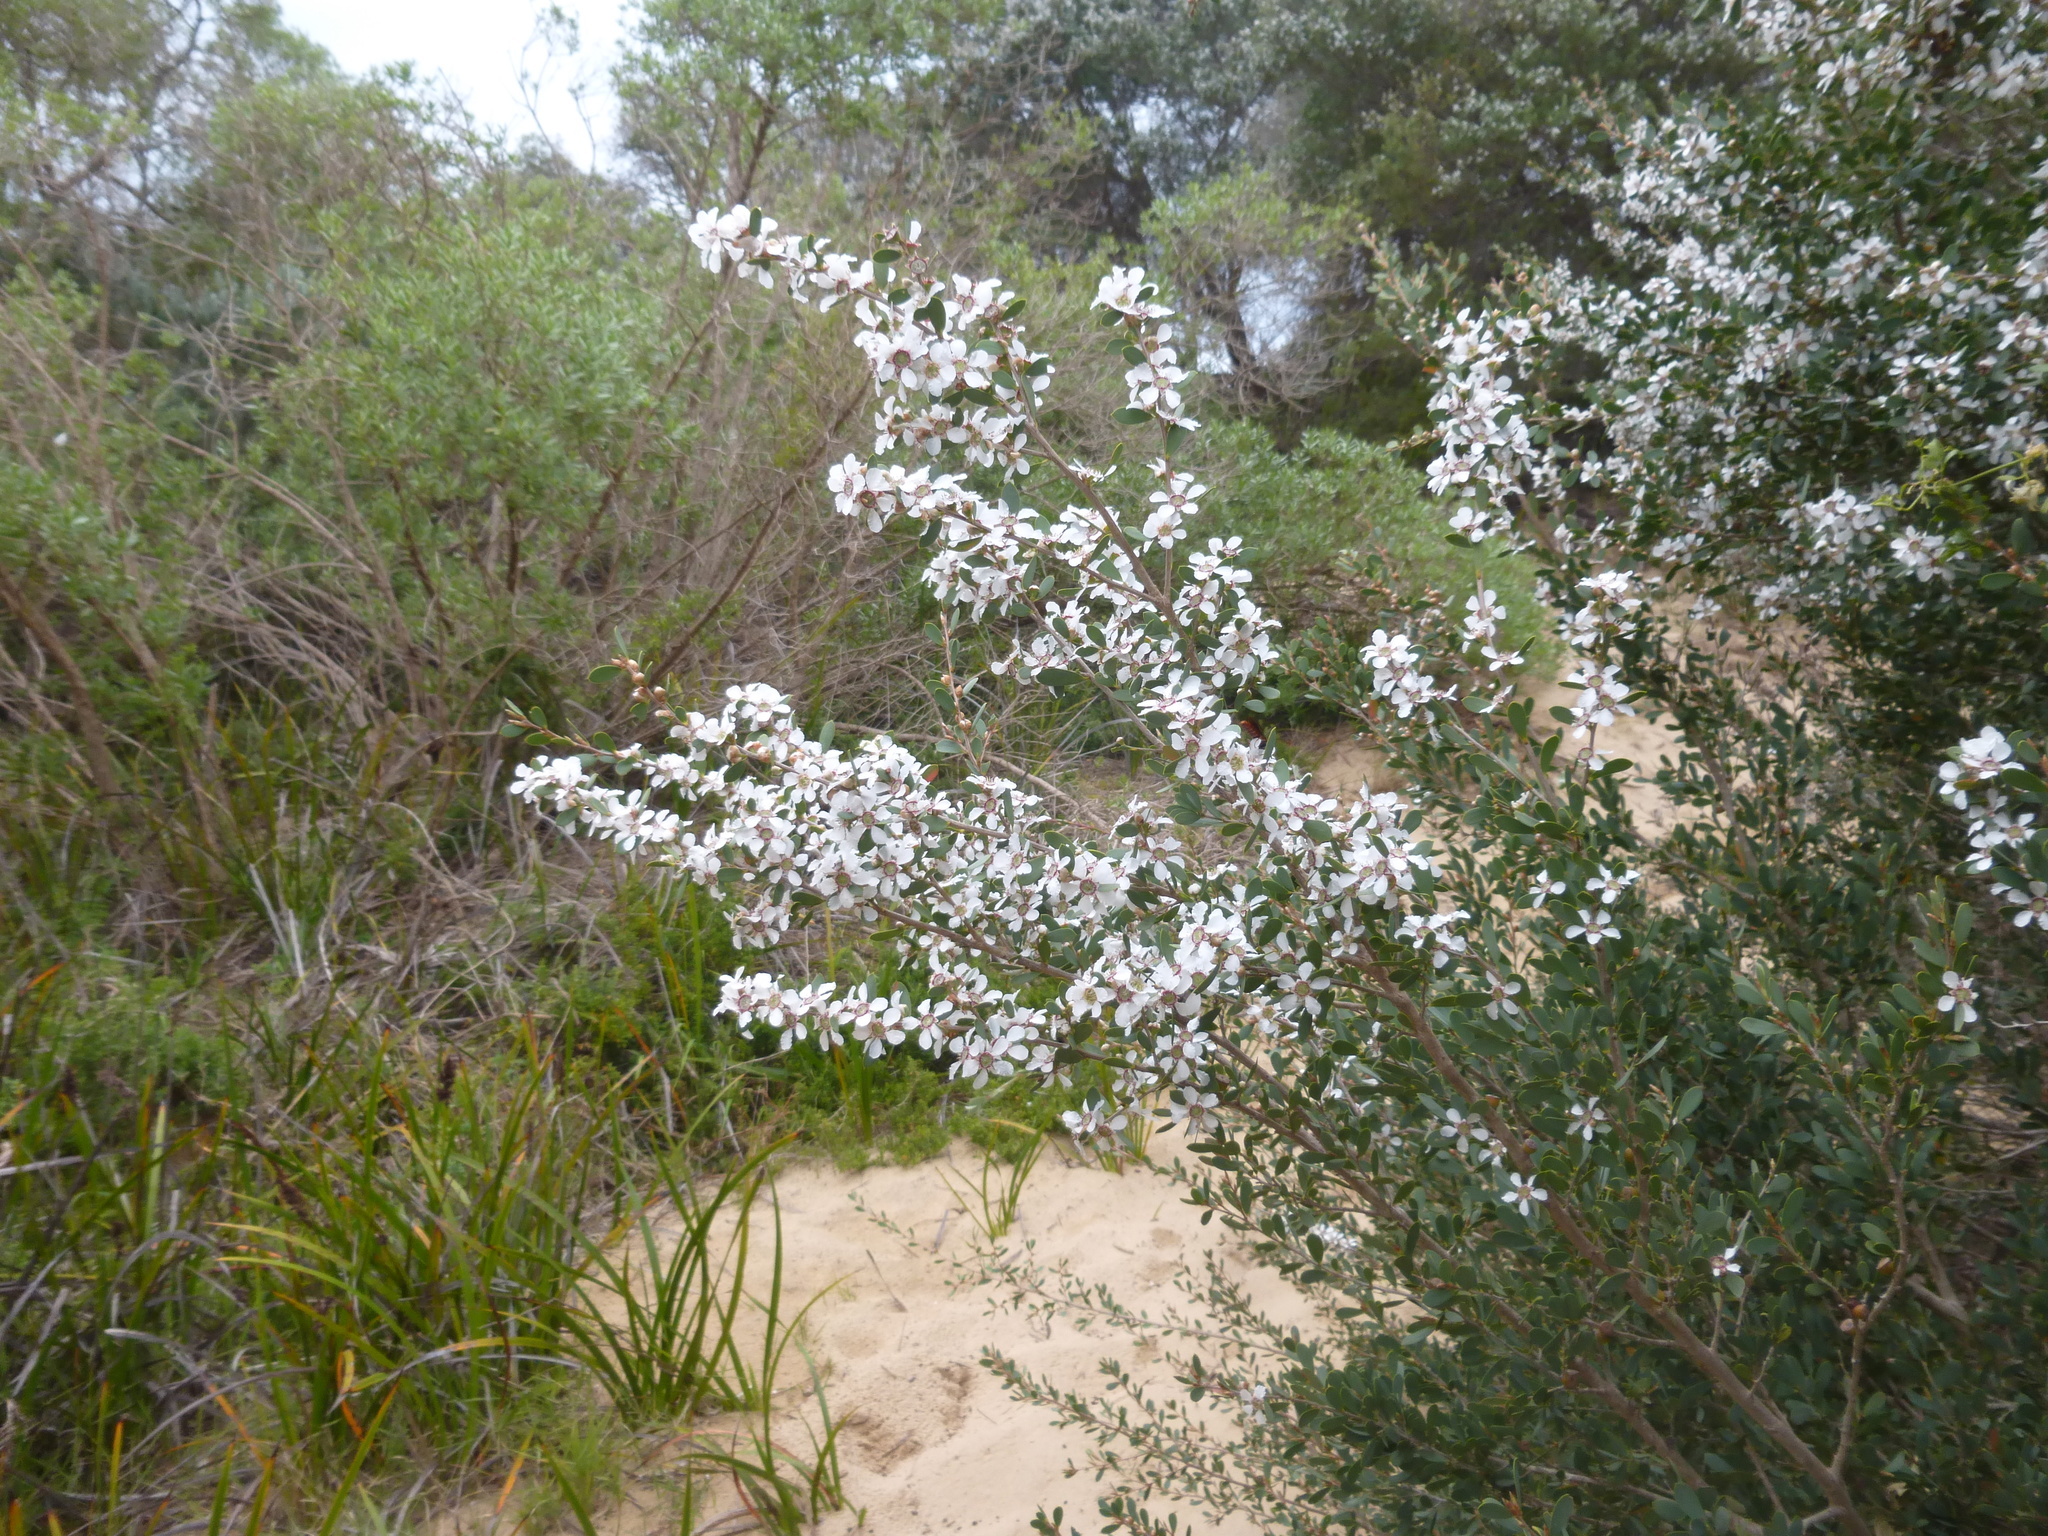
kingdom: Plantae
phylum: Tracheophyta
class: Magnoliopsida
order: Myrtales
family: Myrtaceae
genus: Leptospermum
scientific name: Leptospermum laevigatum
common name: Australian teatree
